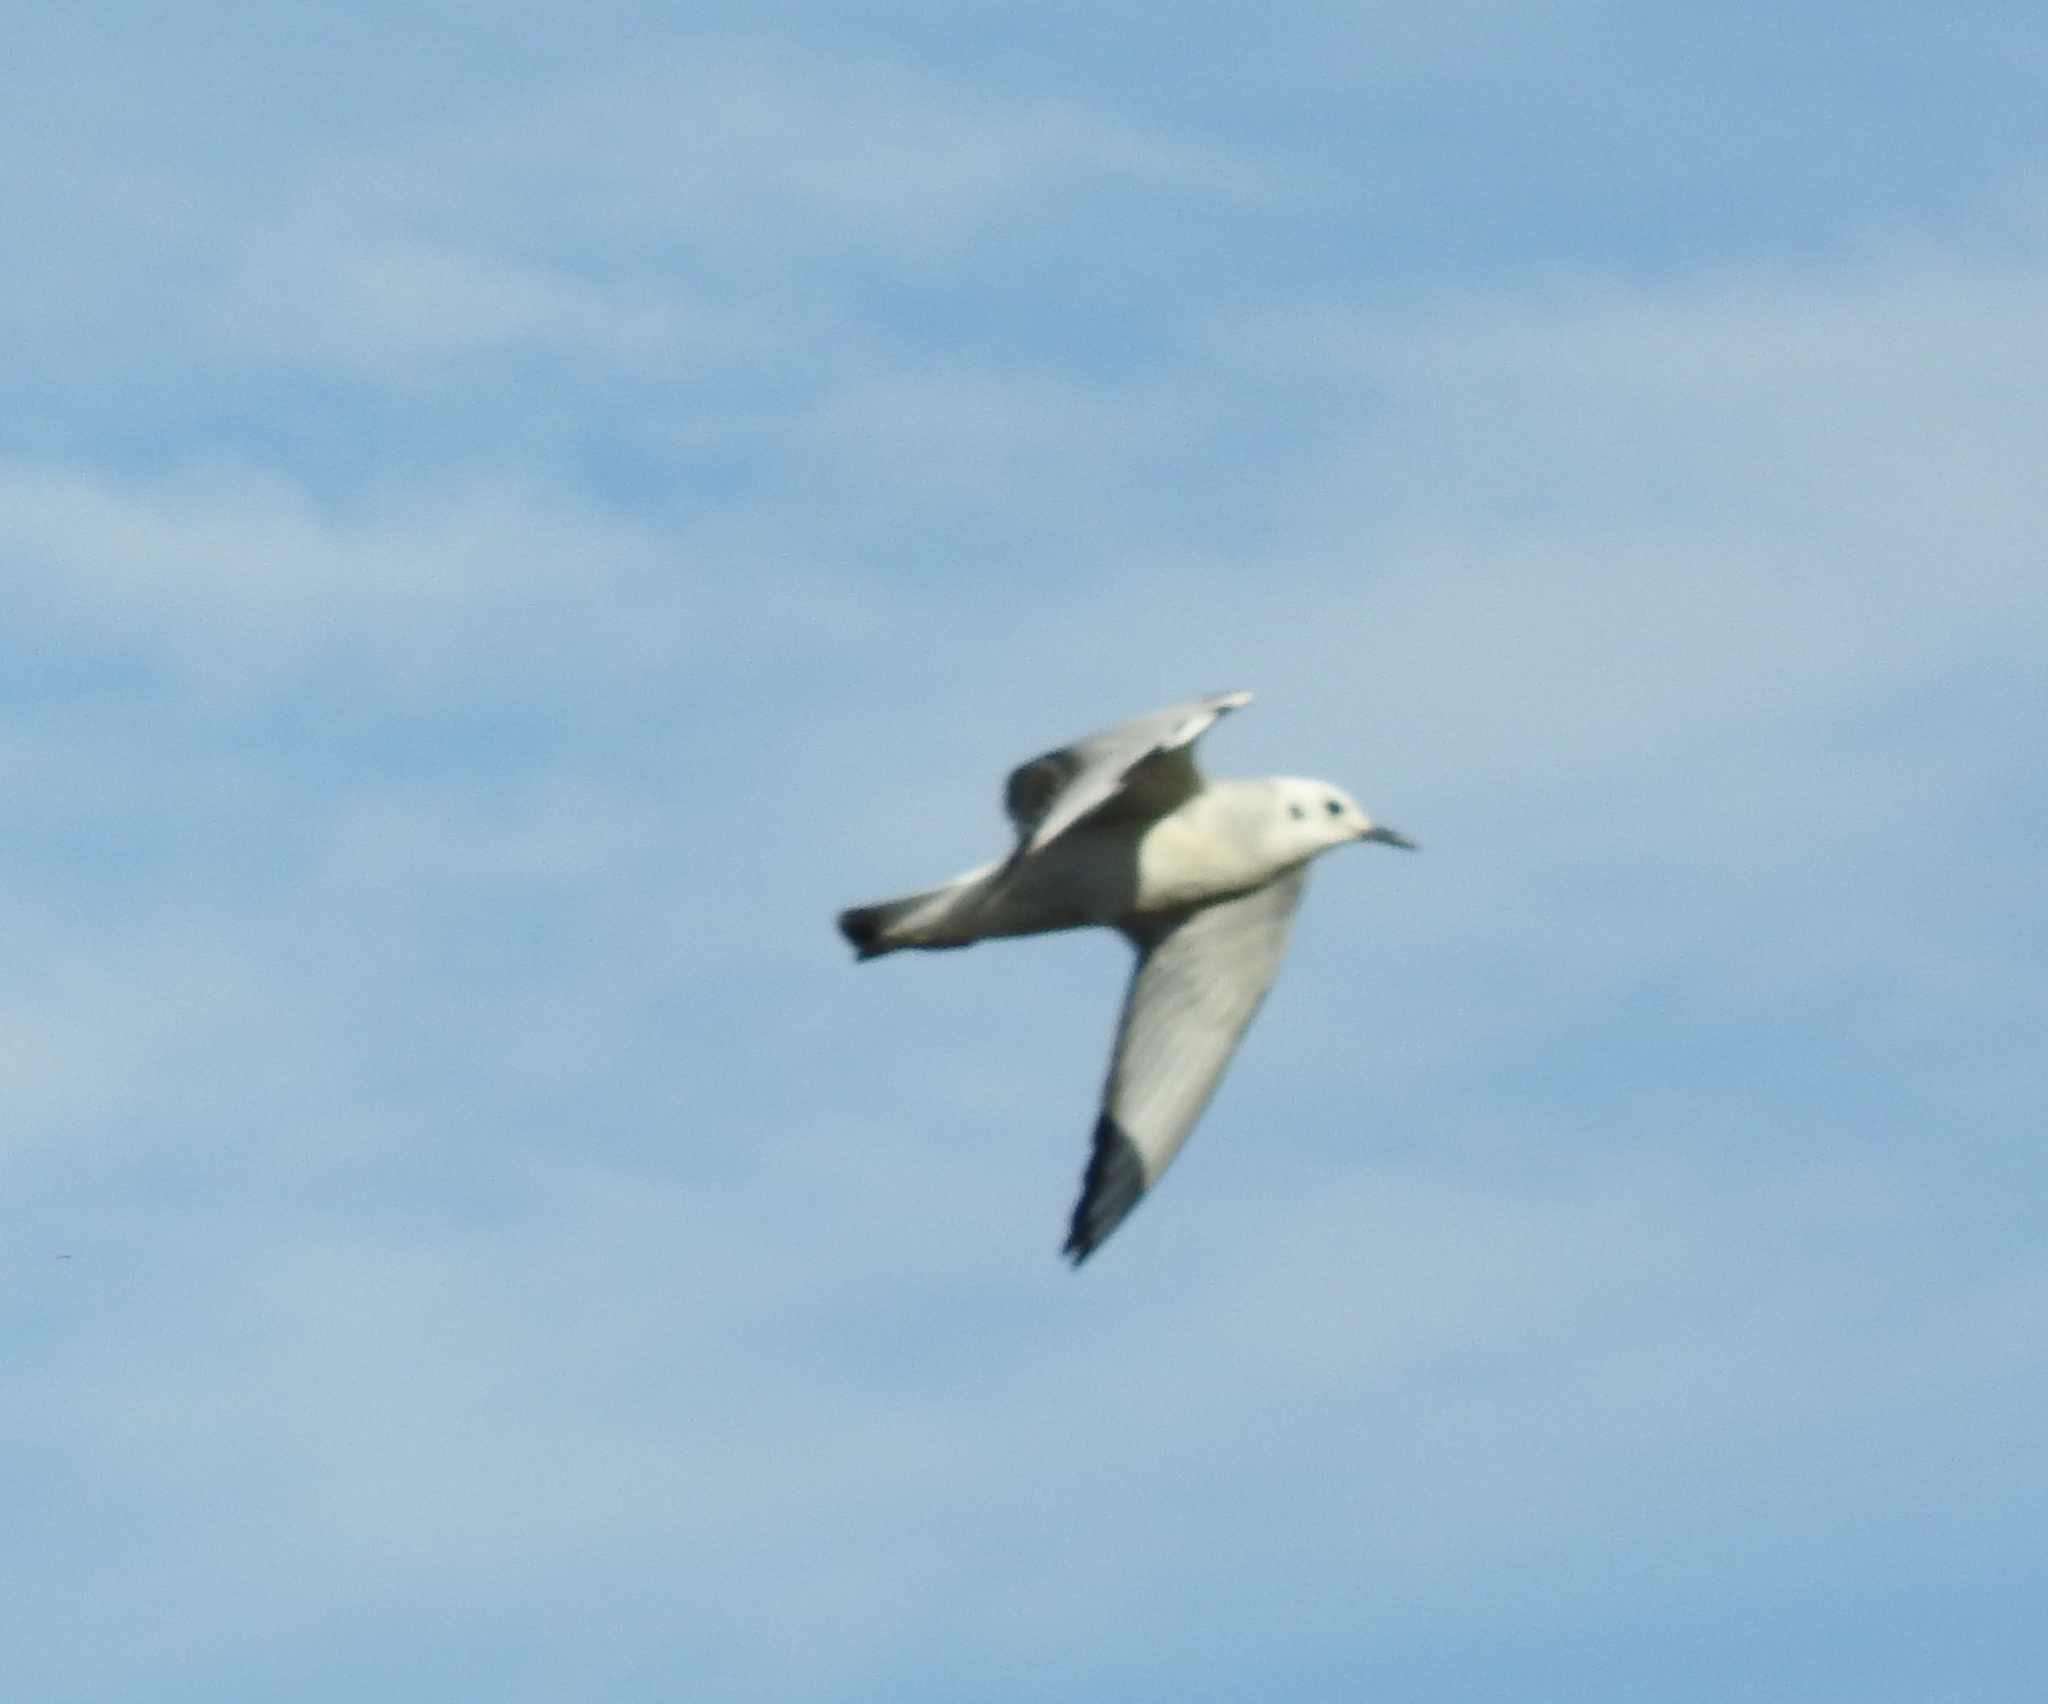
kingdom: Animalia
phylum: Chordata
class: Aves
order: Charadriiformes
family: Laridae
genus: Chroicocephalus
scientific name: Chroicocephalus philadelphia
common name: Bonaparte's gull
